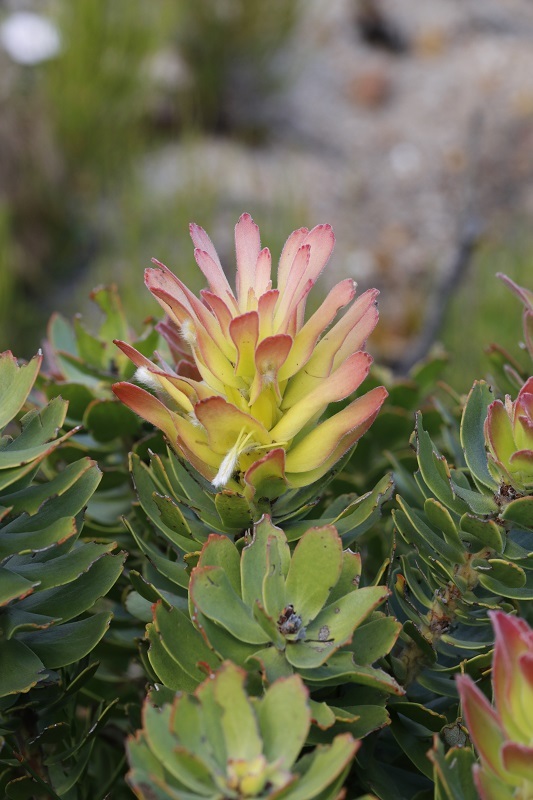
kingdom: Plantae
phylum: Tracheophyta
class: Magnoliopsida
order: Proteales
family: Proteaceae
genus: Mimetes
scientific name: Mimetes cucullatus
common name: Common pagoda
